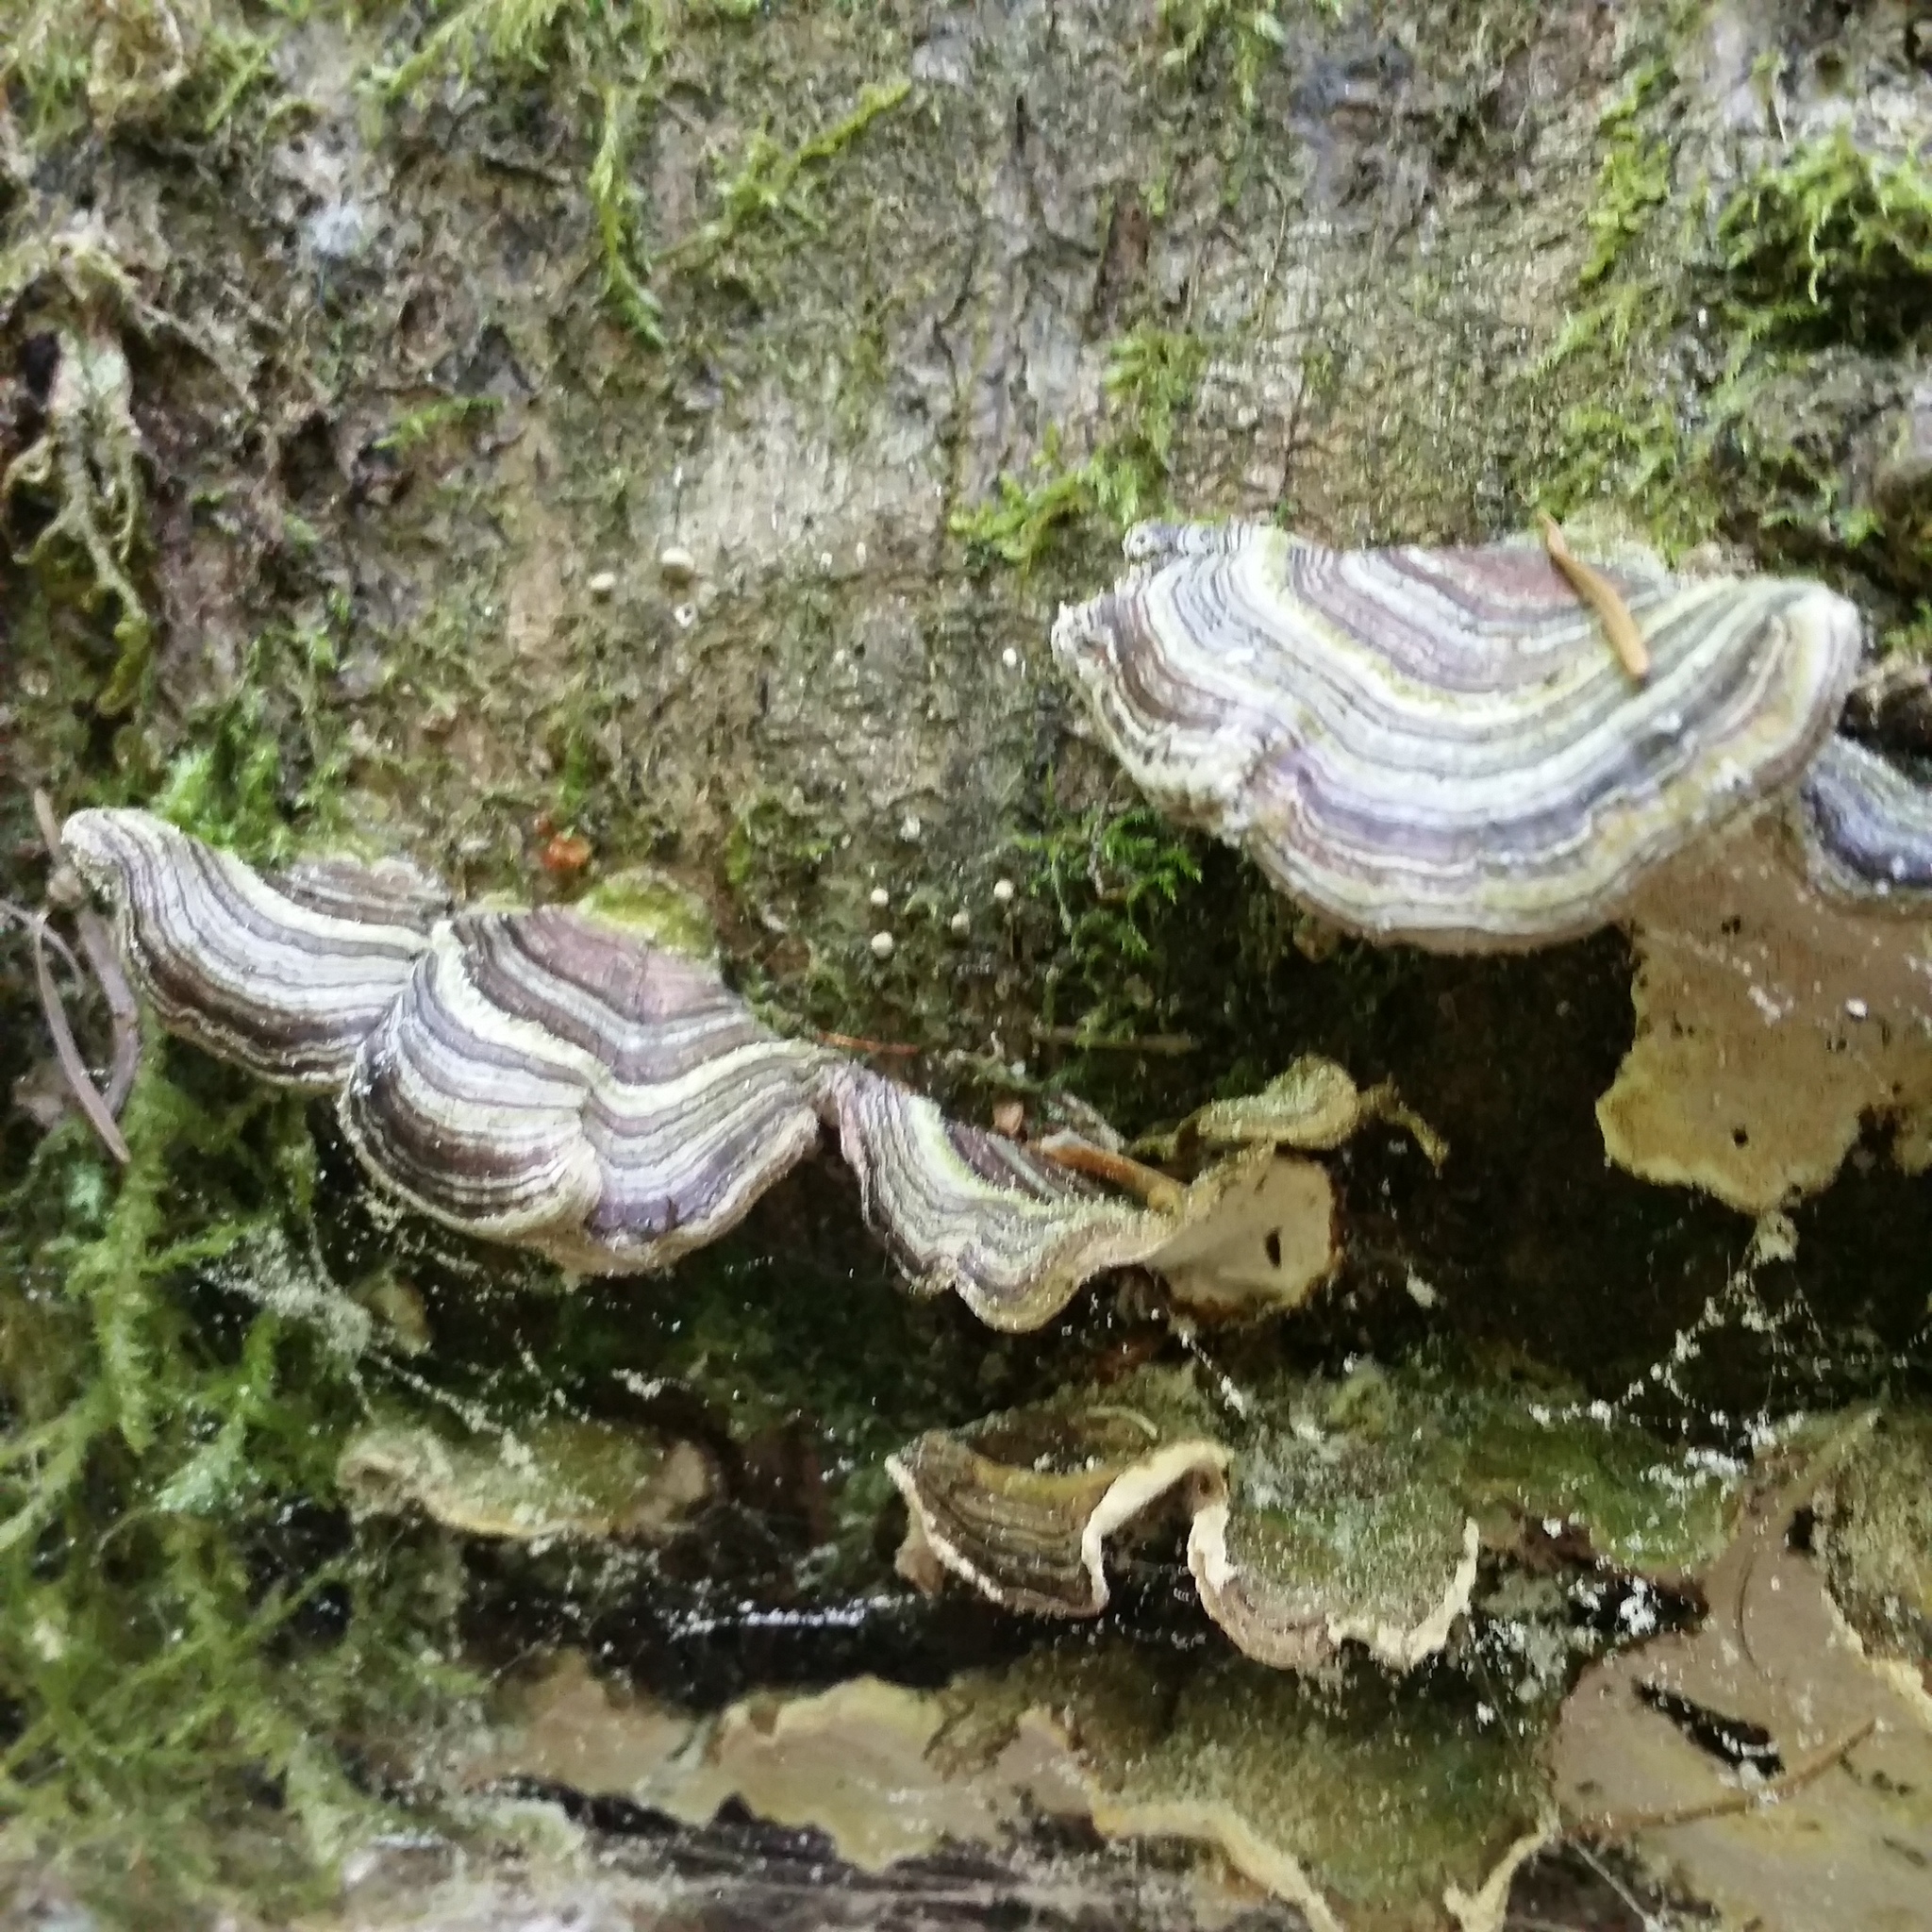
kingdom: Fungi
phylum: Basidiomycota
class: Agaricomycetes
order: Polyporales
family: Polyporaceae
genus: Trametes
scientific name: Trametes versicolor
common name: Turkeytail
